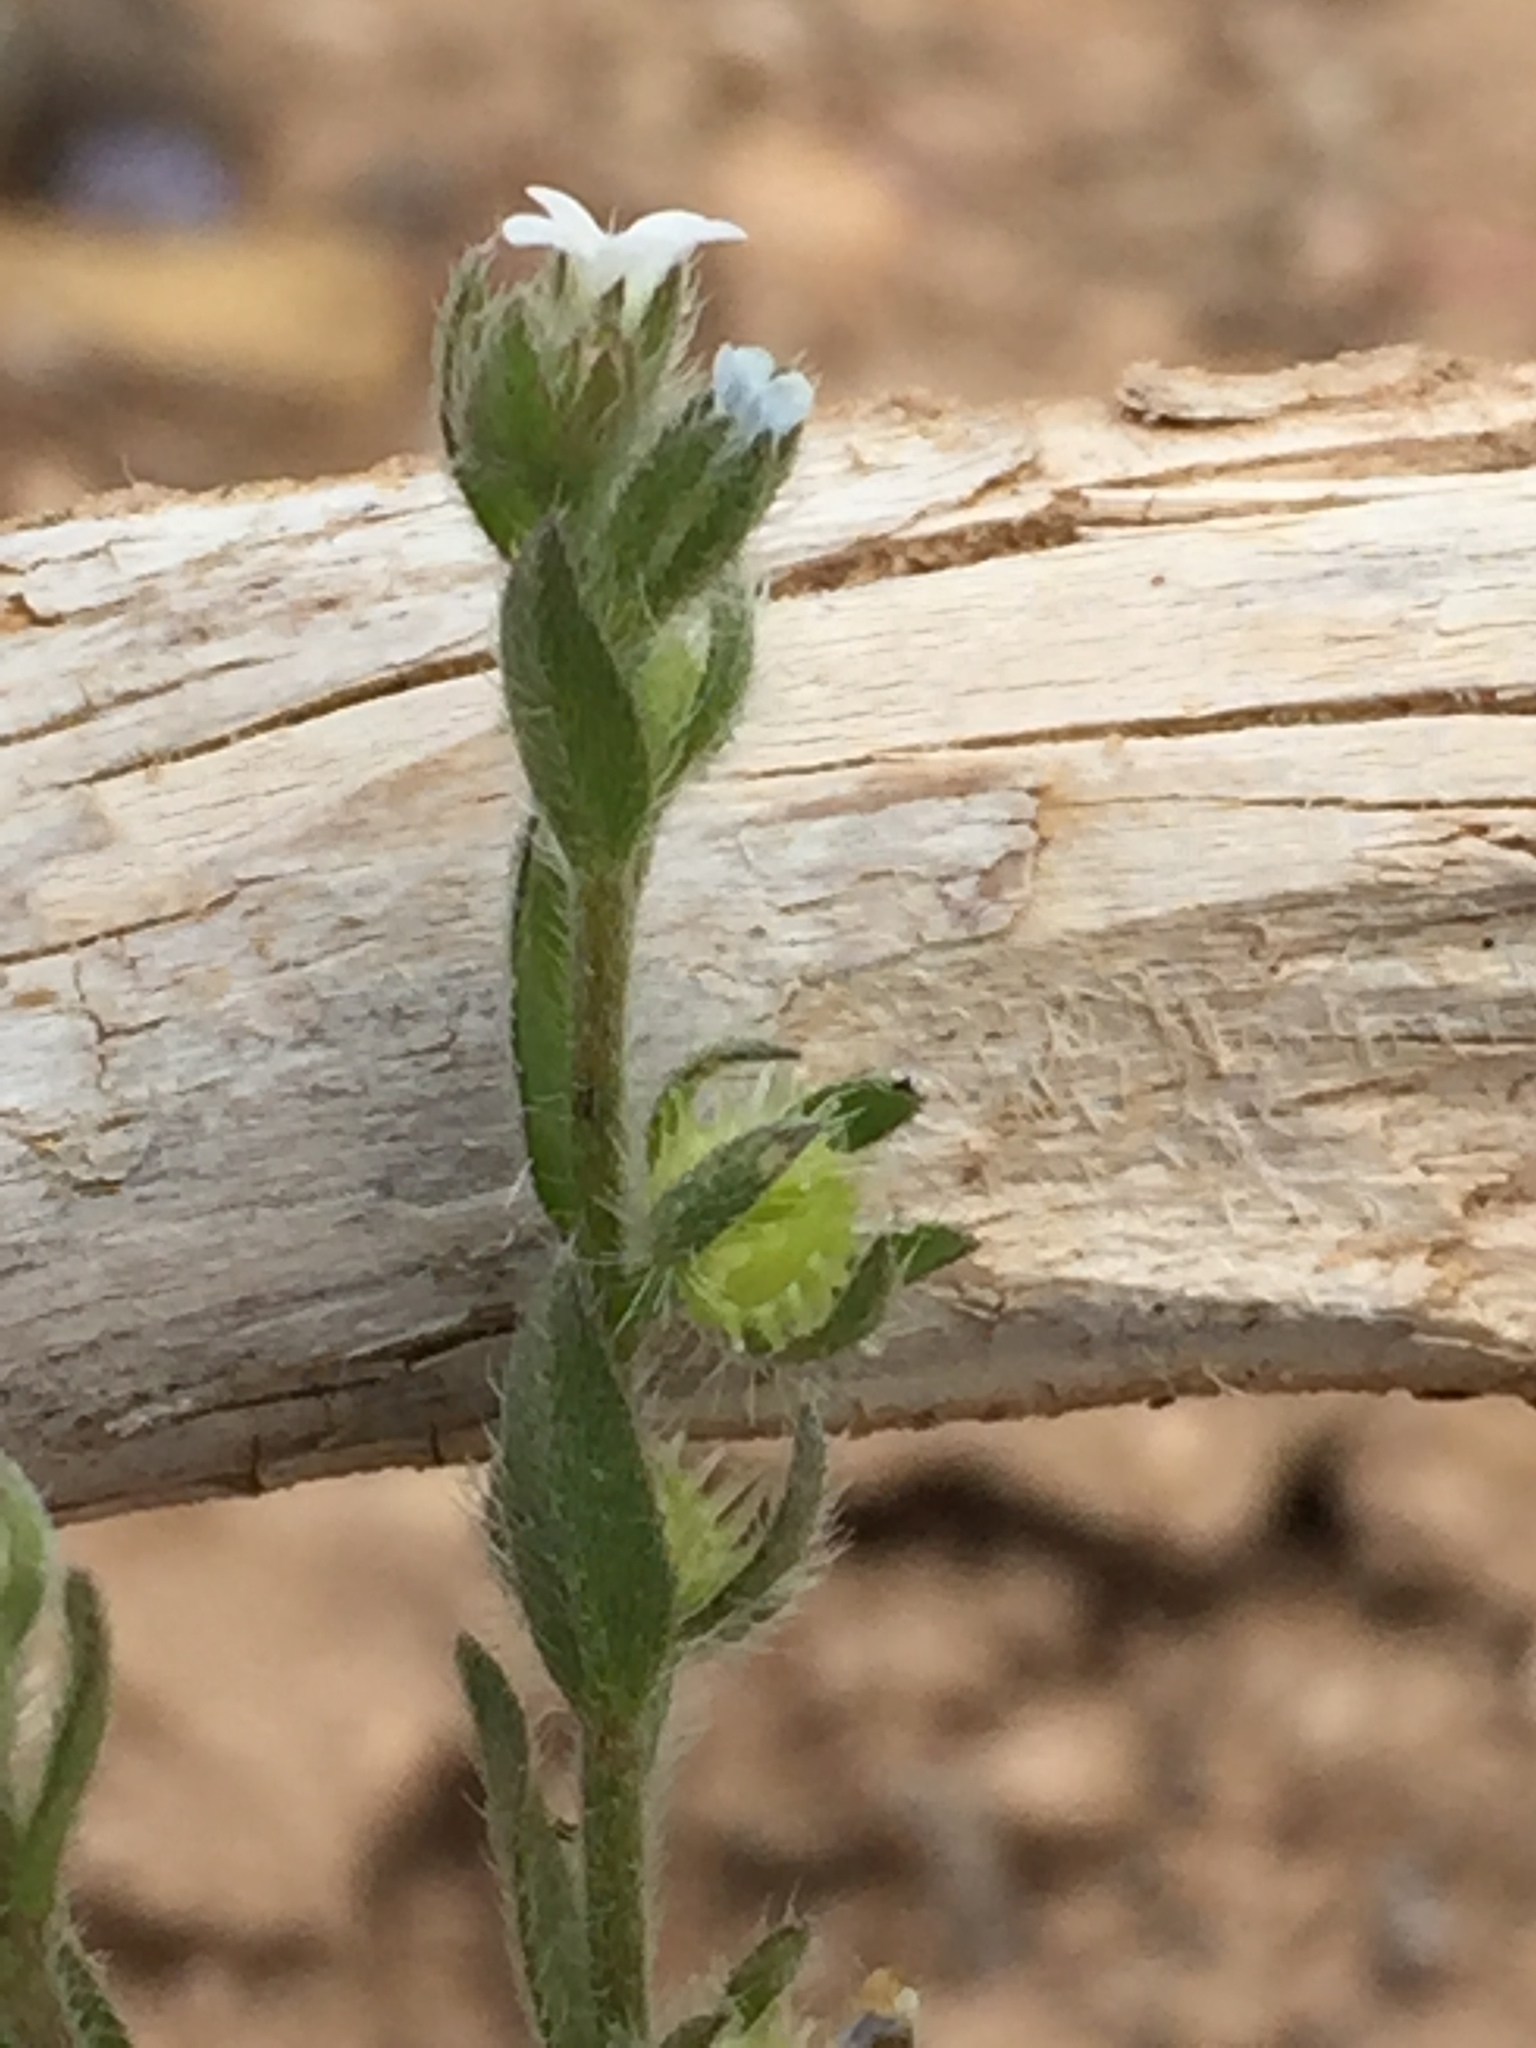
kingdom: Plantae
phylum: Tracheophyta
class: Magnoliopsida
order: Boraginales
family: Boraginaceae
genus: Lappula
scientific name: Lappula occidentalis
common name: Western stickseed
